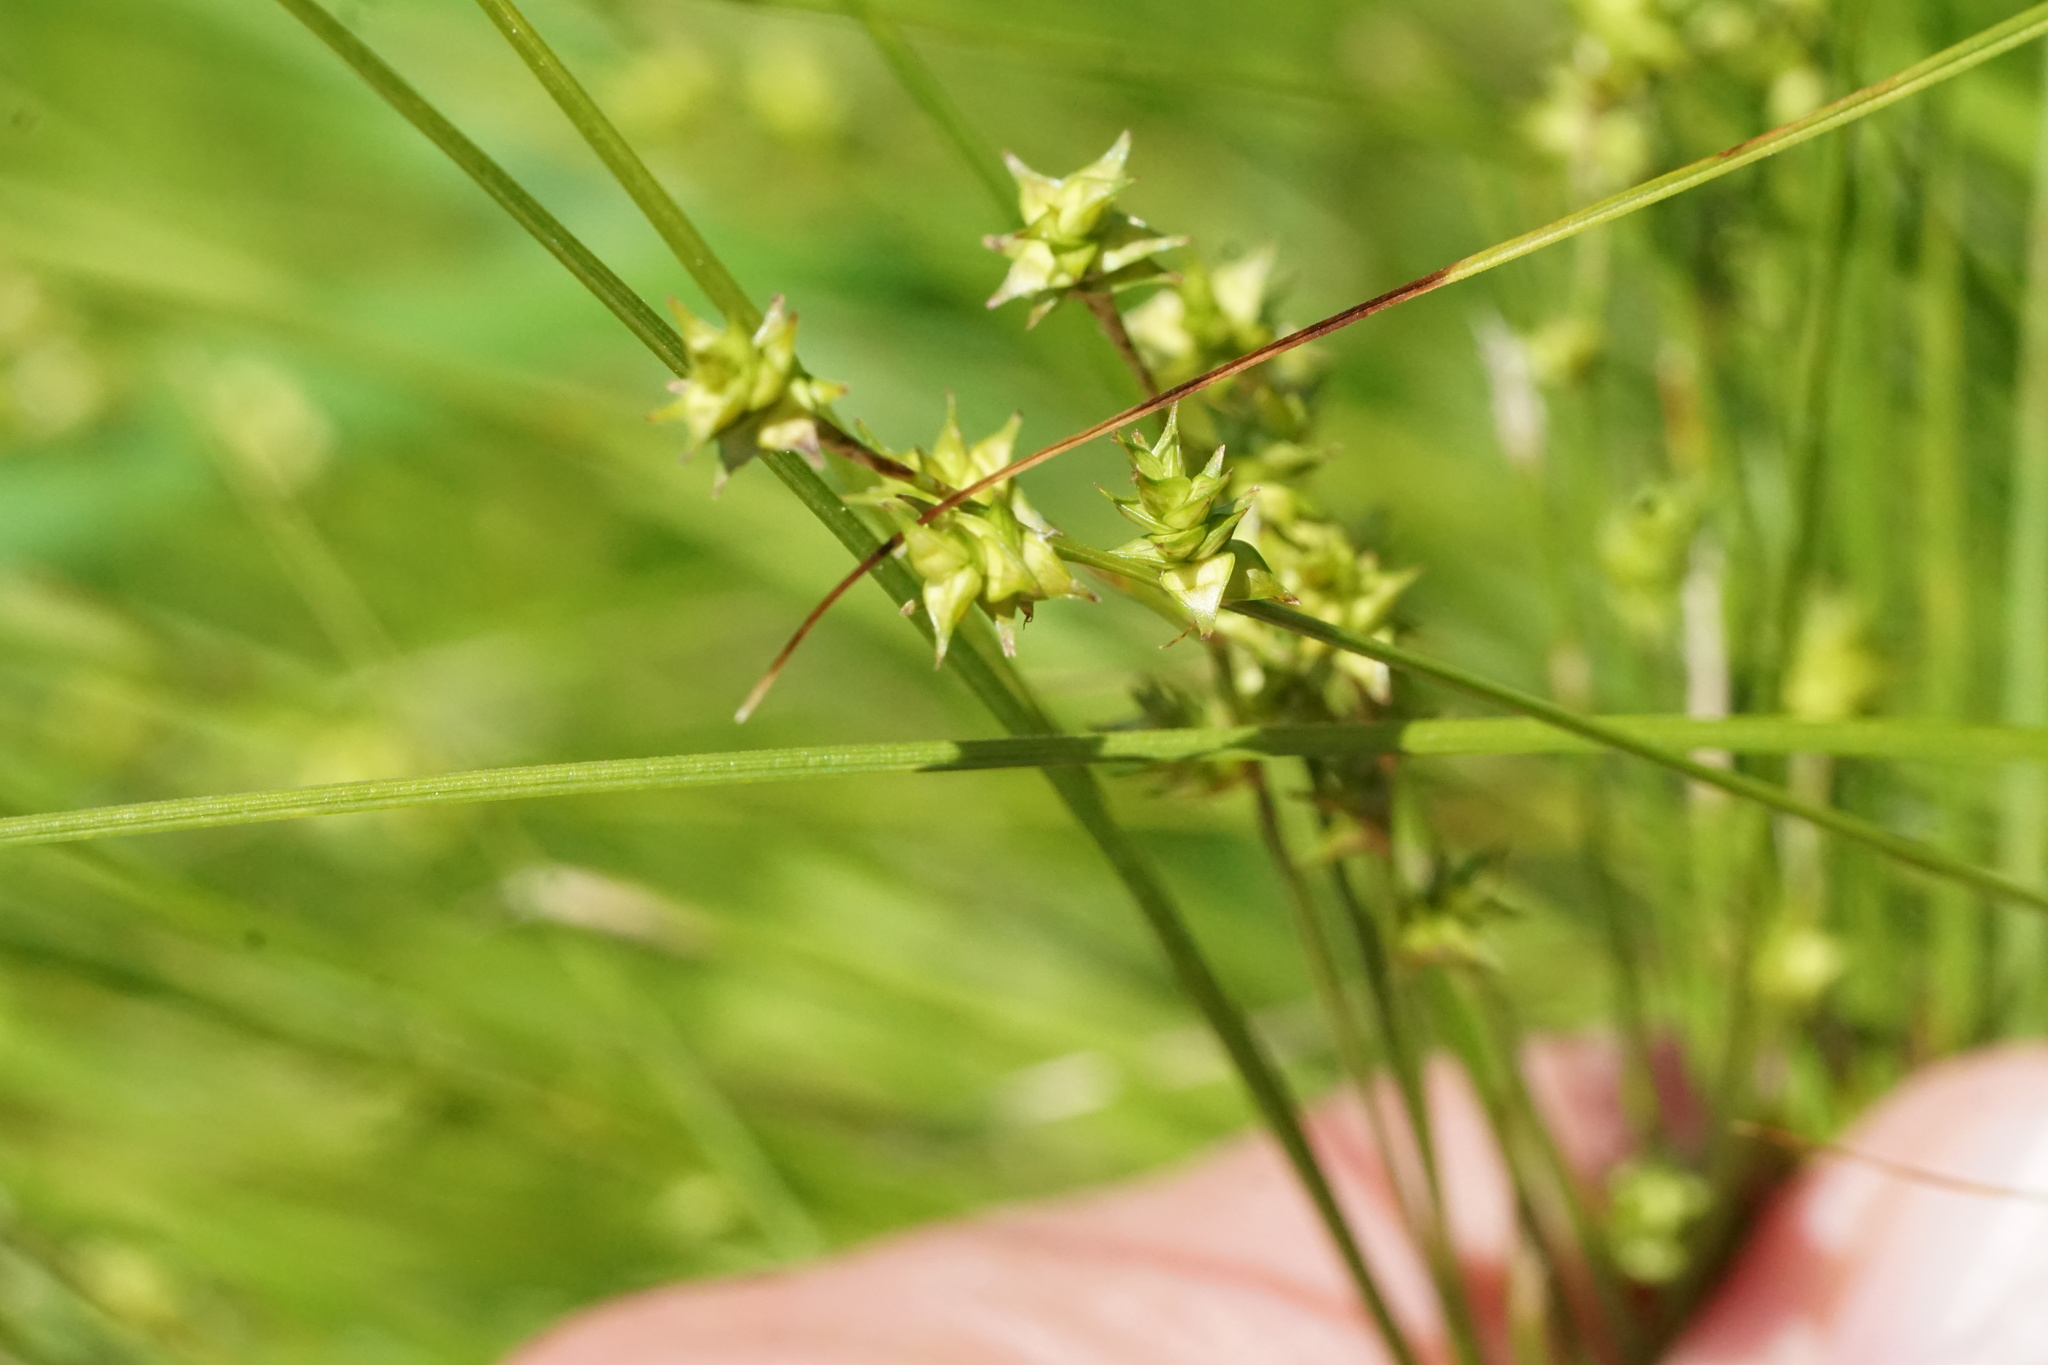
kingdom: Plantae
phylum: Tracheophyta
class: Liliopsida
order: Poales
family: Cyperaceae
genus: Carex
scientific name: Carex atlantica
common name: Atlantic sedge
